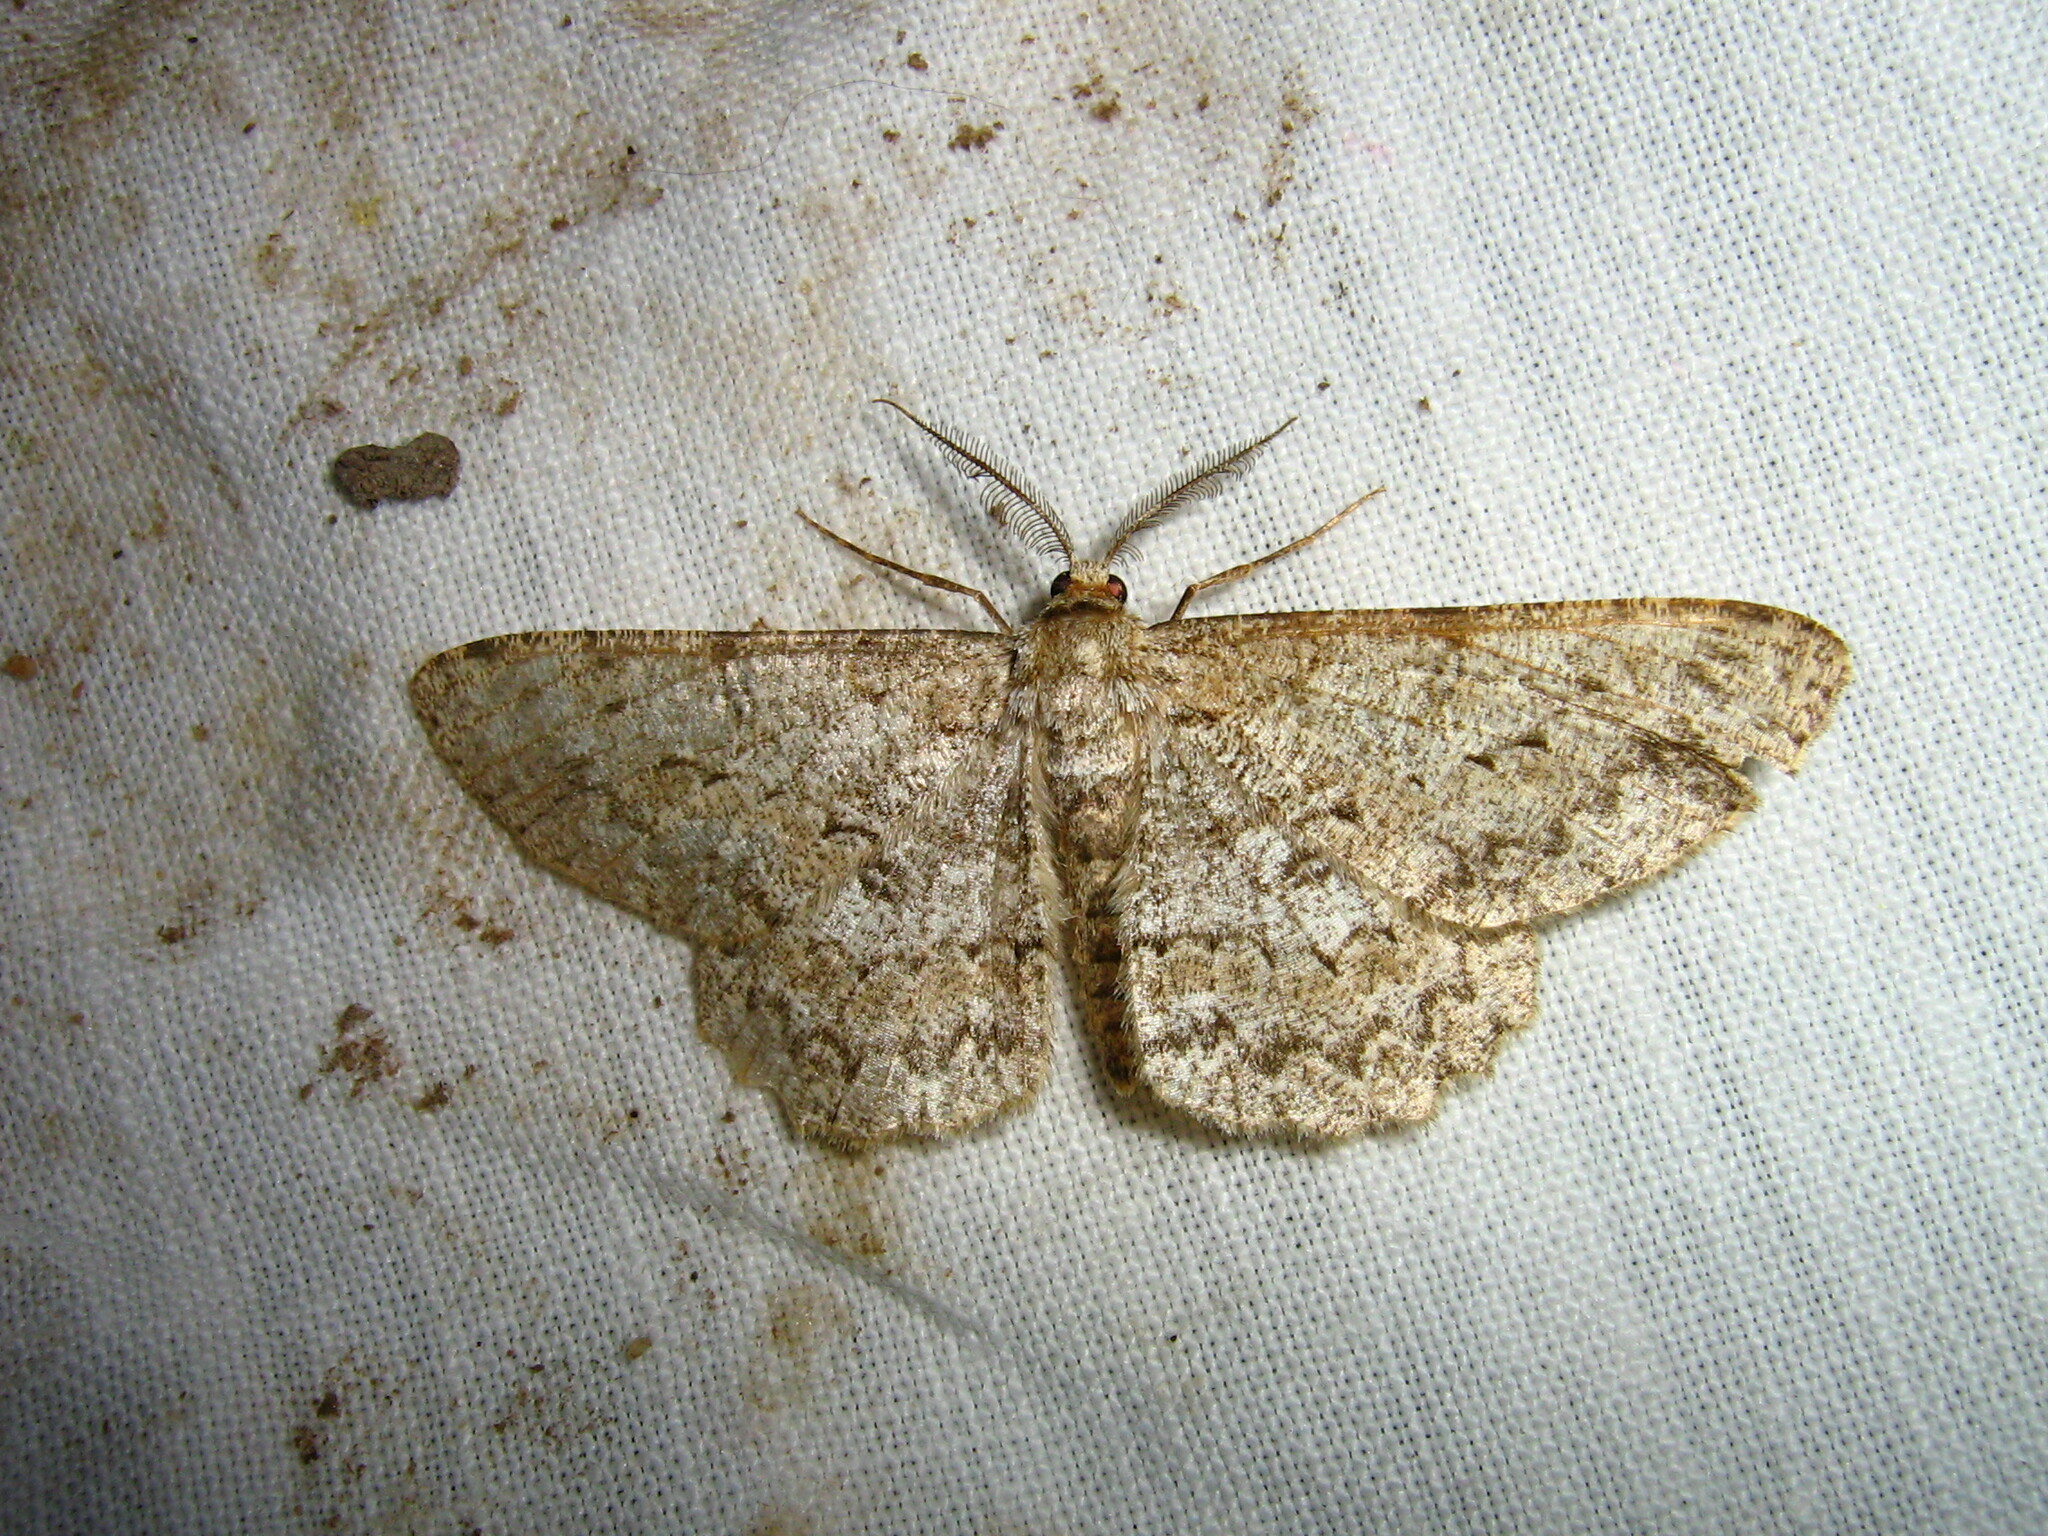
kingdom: Animalia
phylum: Arthropoda
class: Insecta
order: Lepidoptera
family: Geometridae
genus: Hypomecis
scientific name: Hypomecis punctinalis
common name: Pale oak beauty
